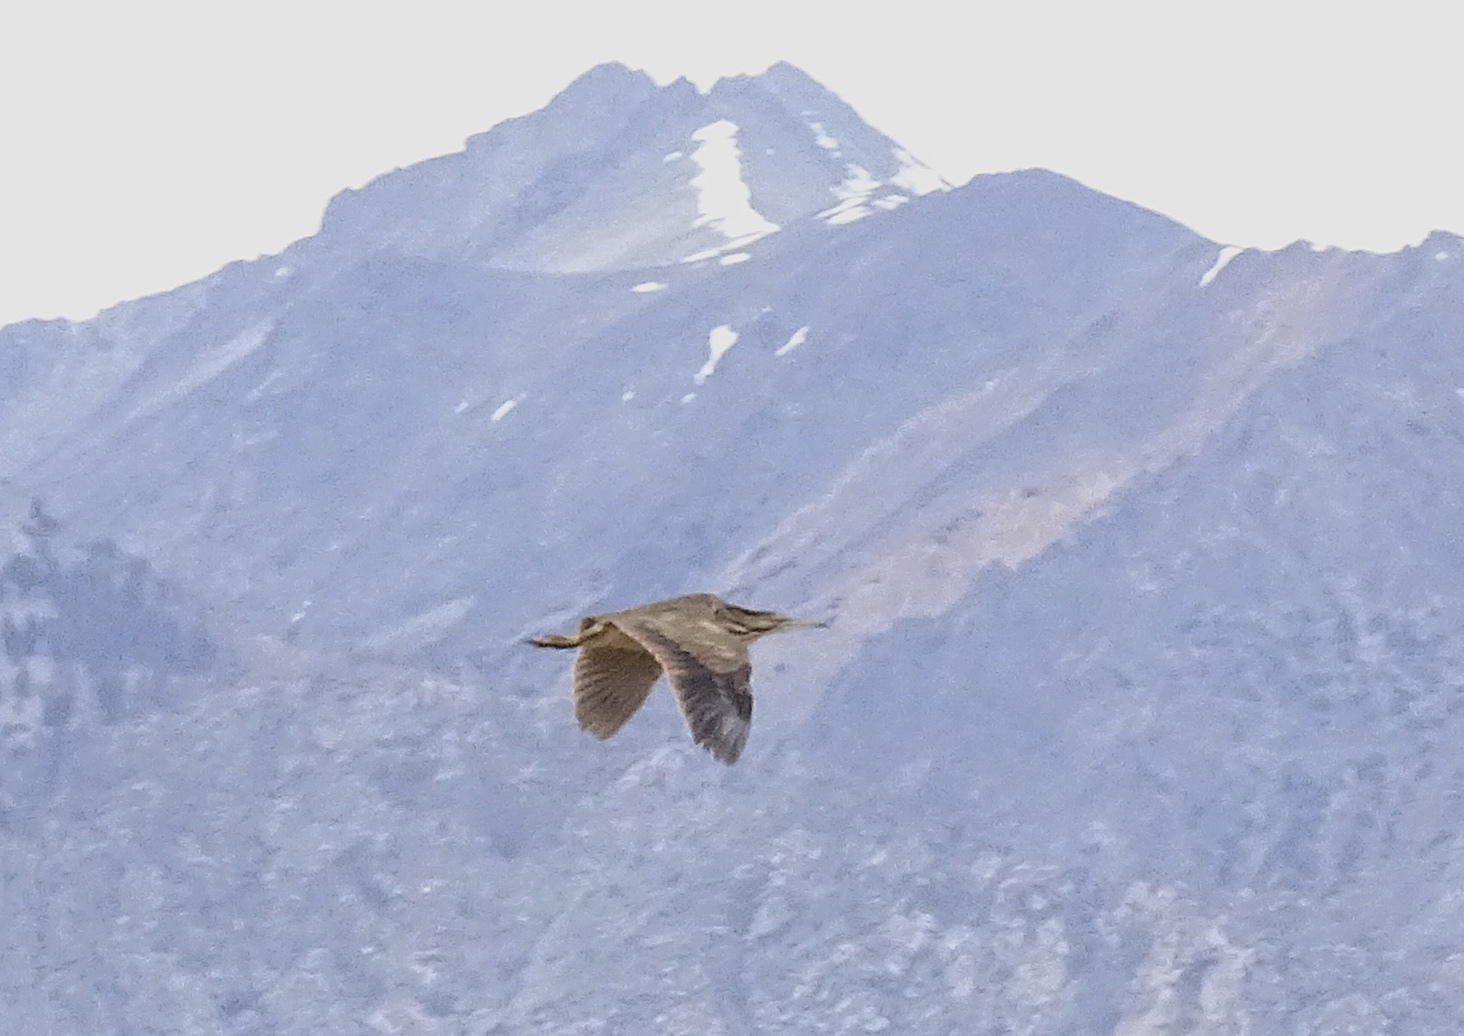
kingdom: Animalia
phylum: Chordata
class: Aves
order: Pelecaniformes
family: Ardeidae
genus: Botaurus
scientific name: Botaurus lentiginosus
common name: American bittern
